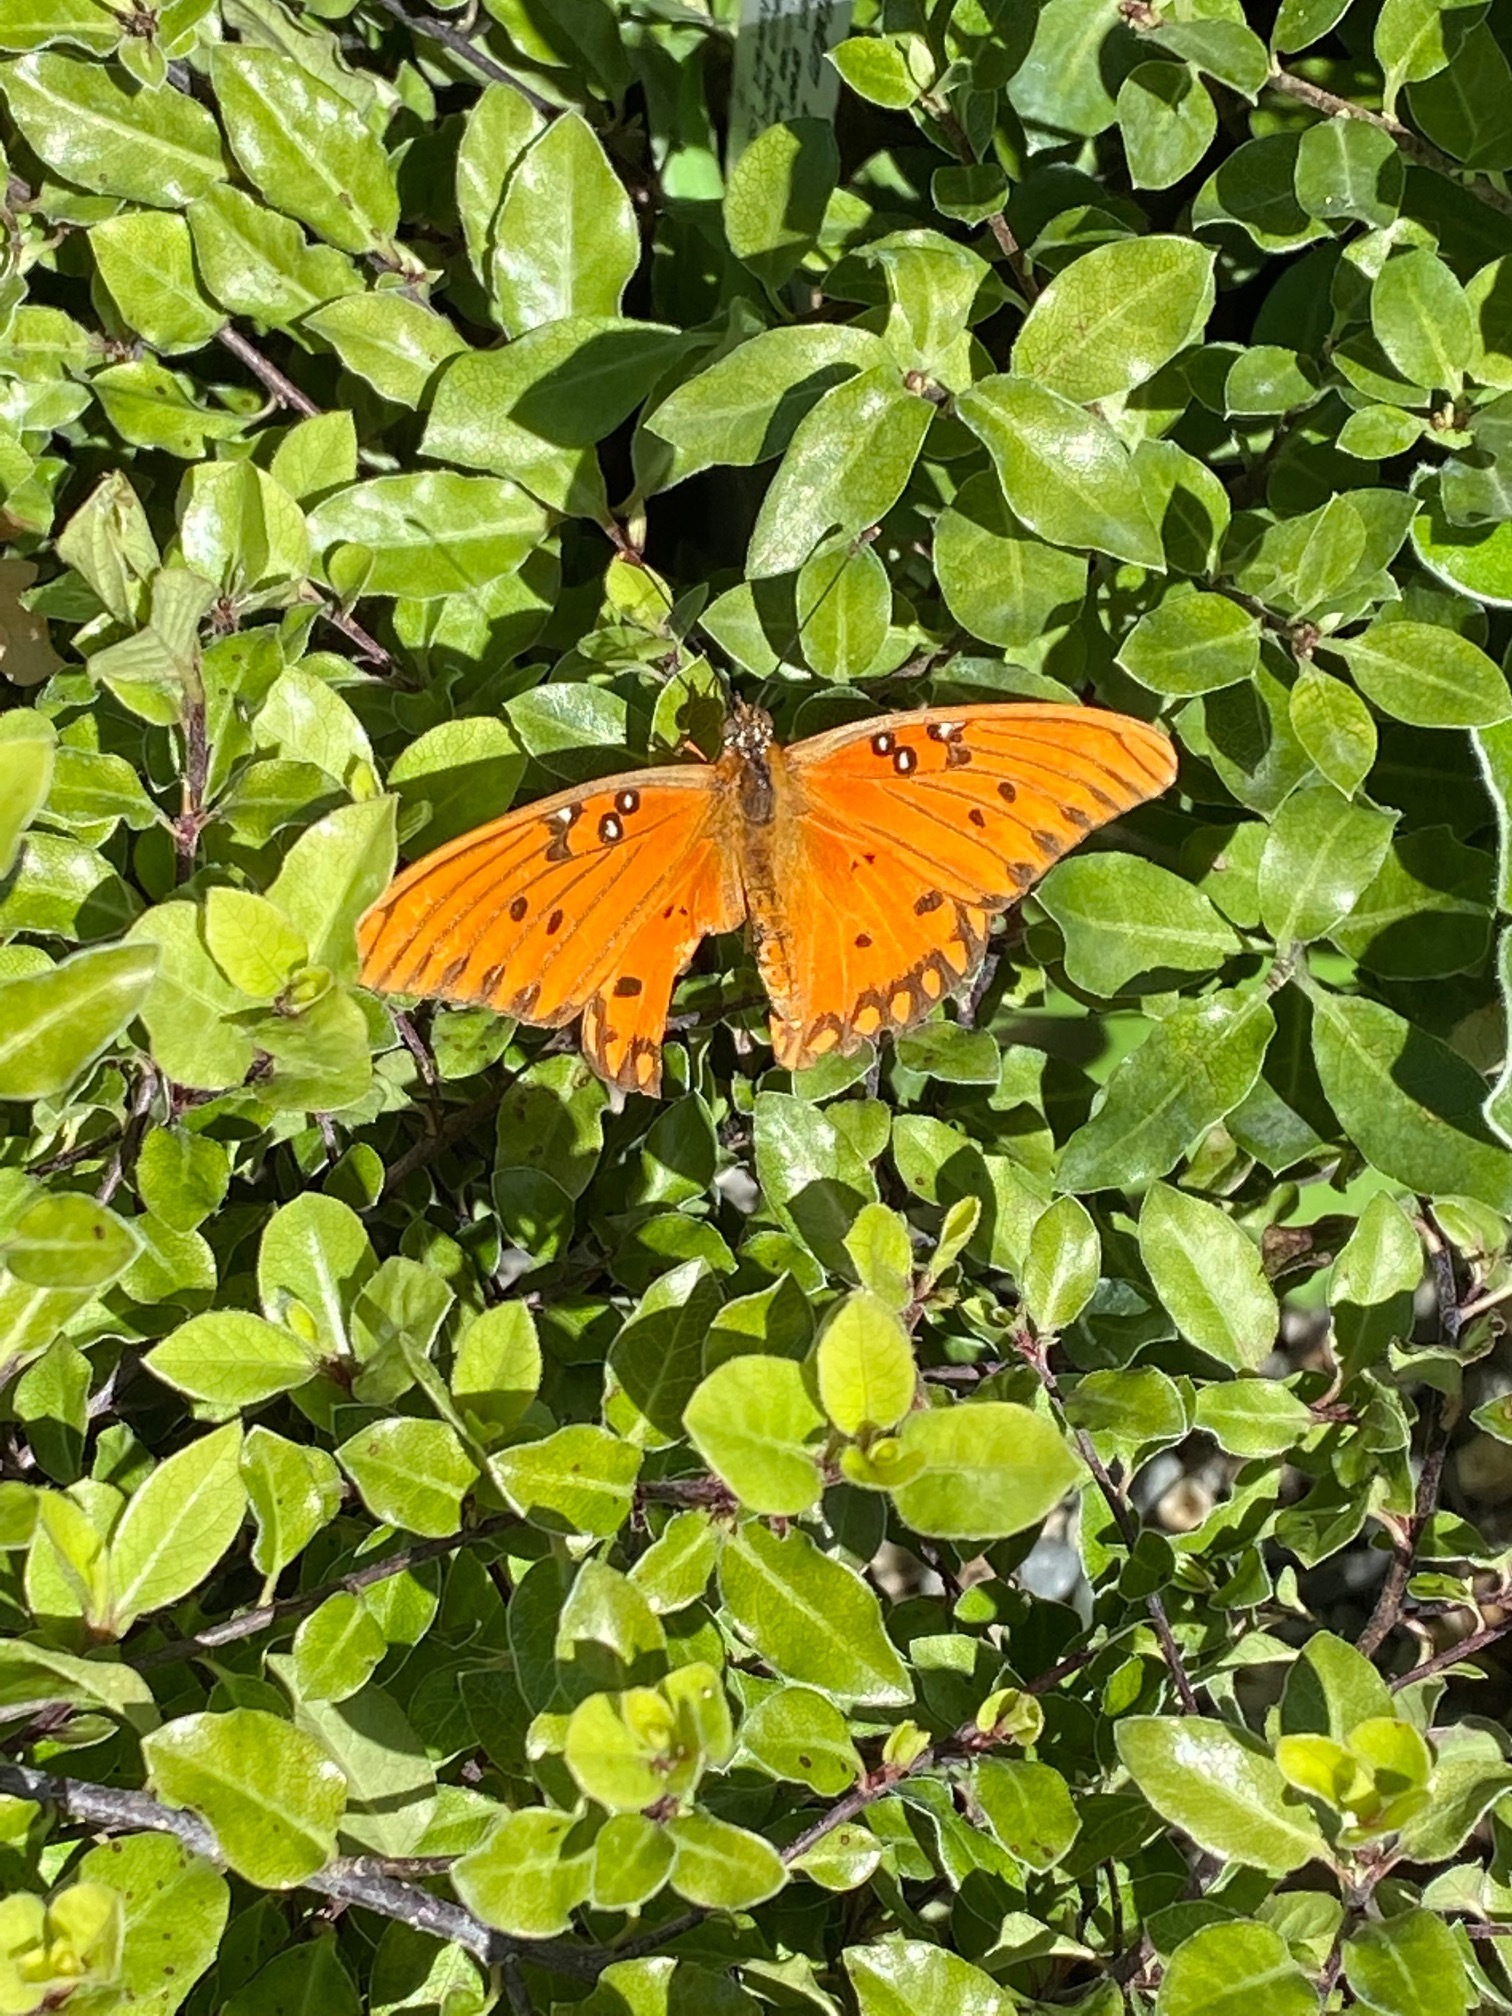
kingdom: Animalia
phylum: Arthropoda
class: Insecta
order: Lepidoptera
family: Nymphalidae
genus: Dione
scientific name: Dione vanillae
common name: Gulf fritillary
